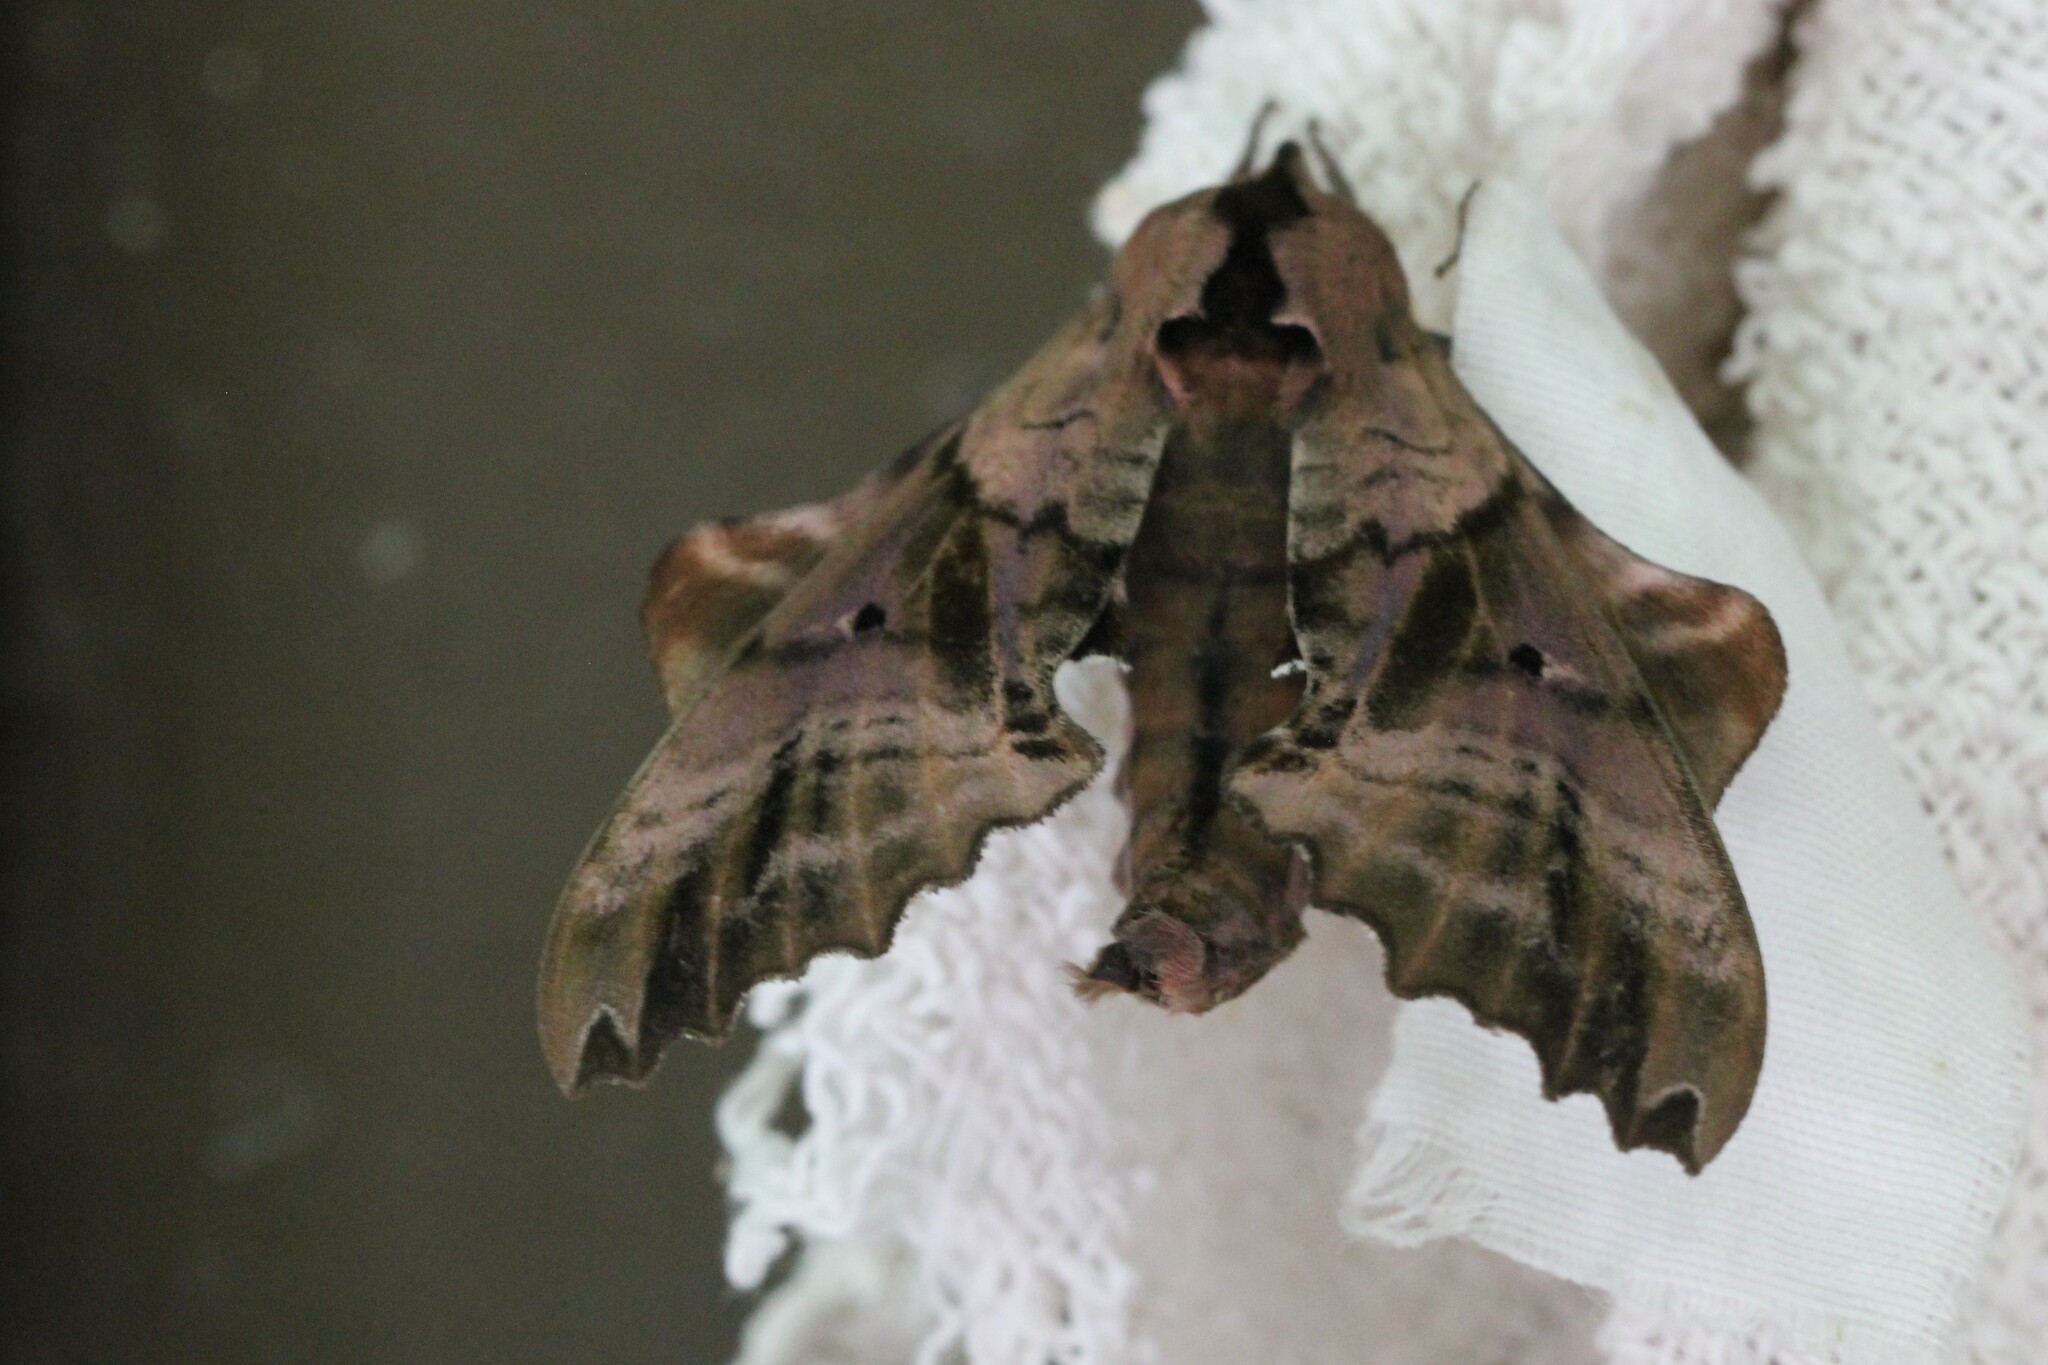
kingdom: Animalia
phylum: Arthropoda
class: Insecta
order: Lepidoptera
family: Sphingidae
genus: Paonias
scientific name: Paonias excaecata
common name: Blind-eyed sphinx
